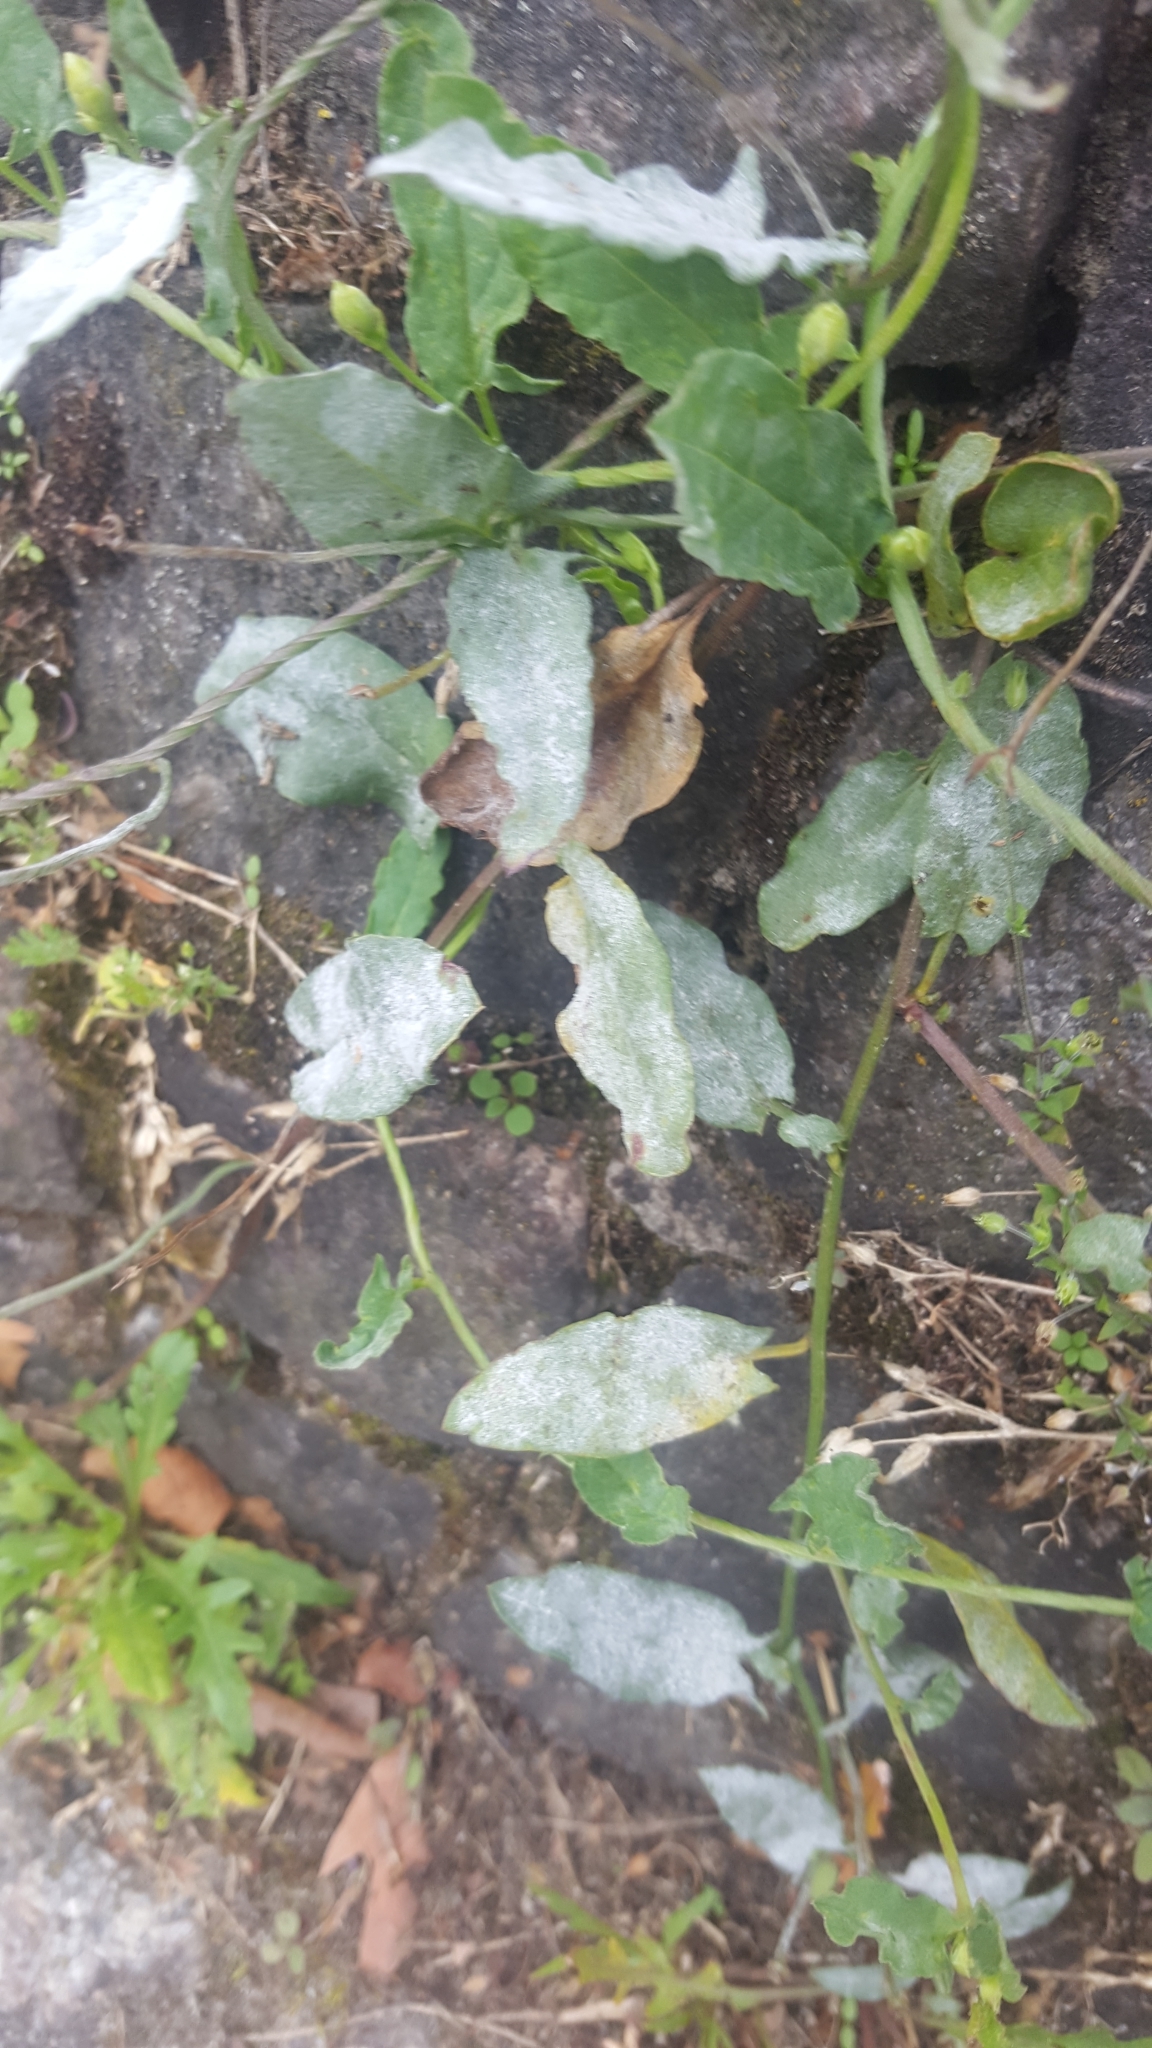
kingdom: Fungi
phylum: Ascomycota
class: Leotiomycetes
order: Helotiales
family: Erysiphaceae
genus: Erysiphe
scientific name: Erysiphe convolvuli
